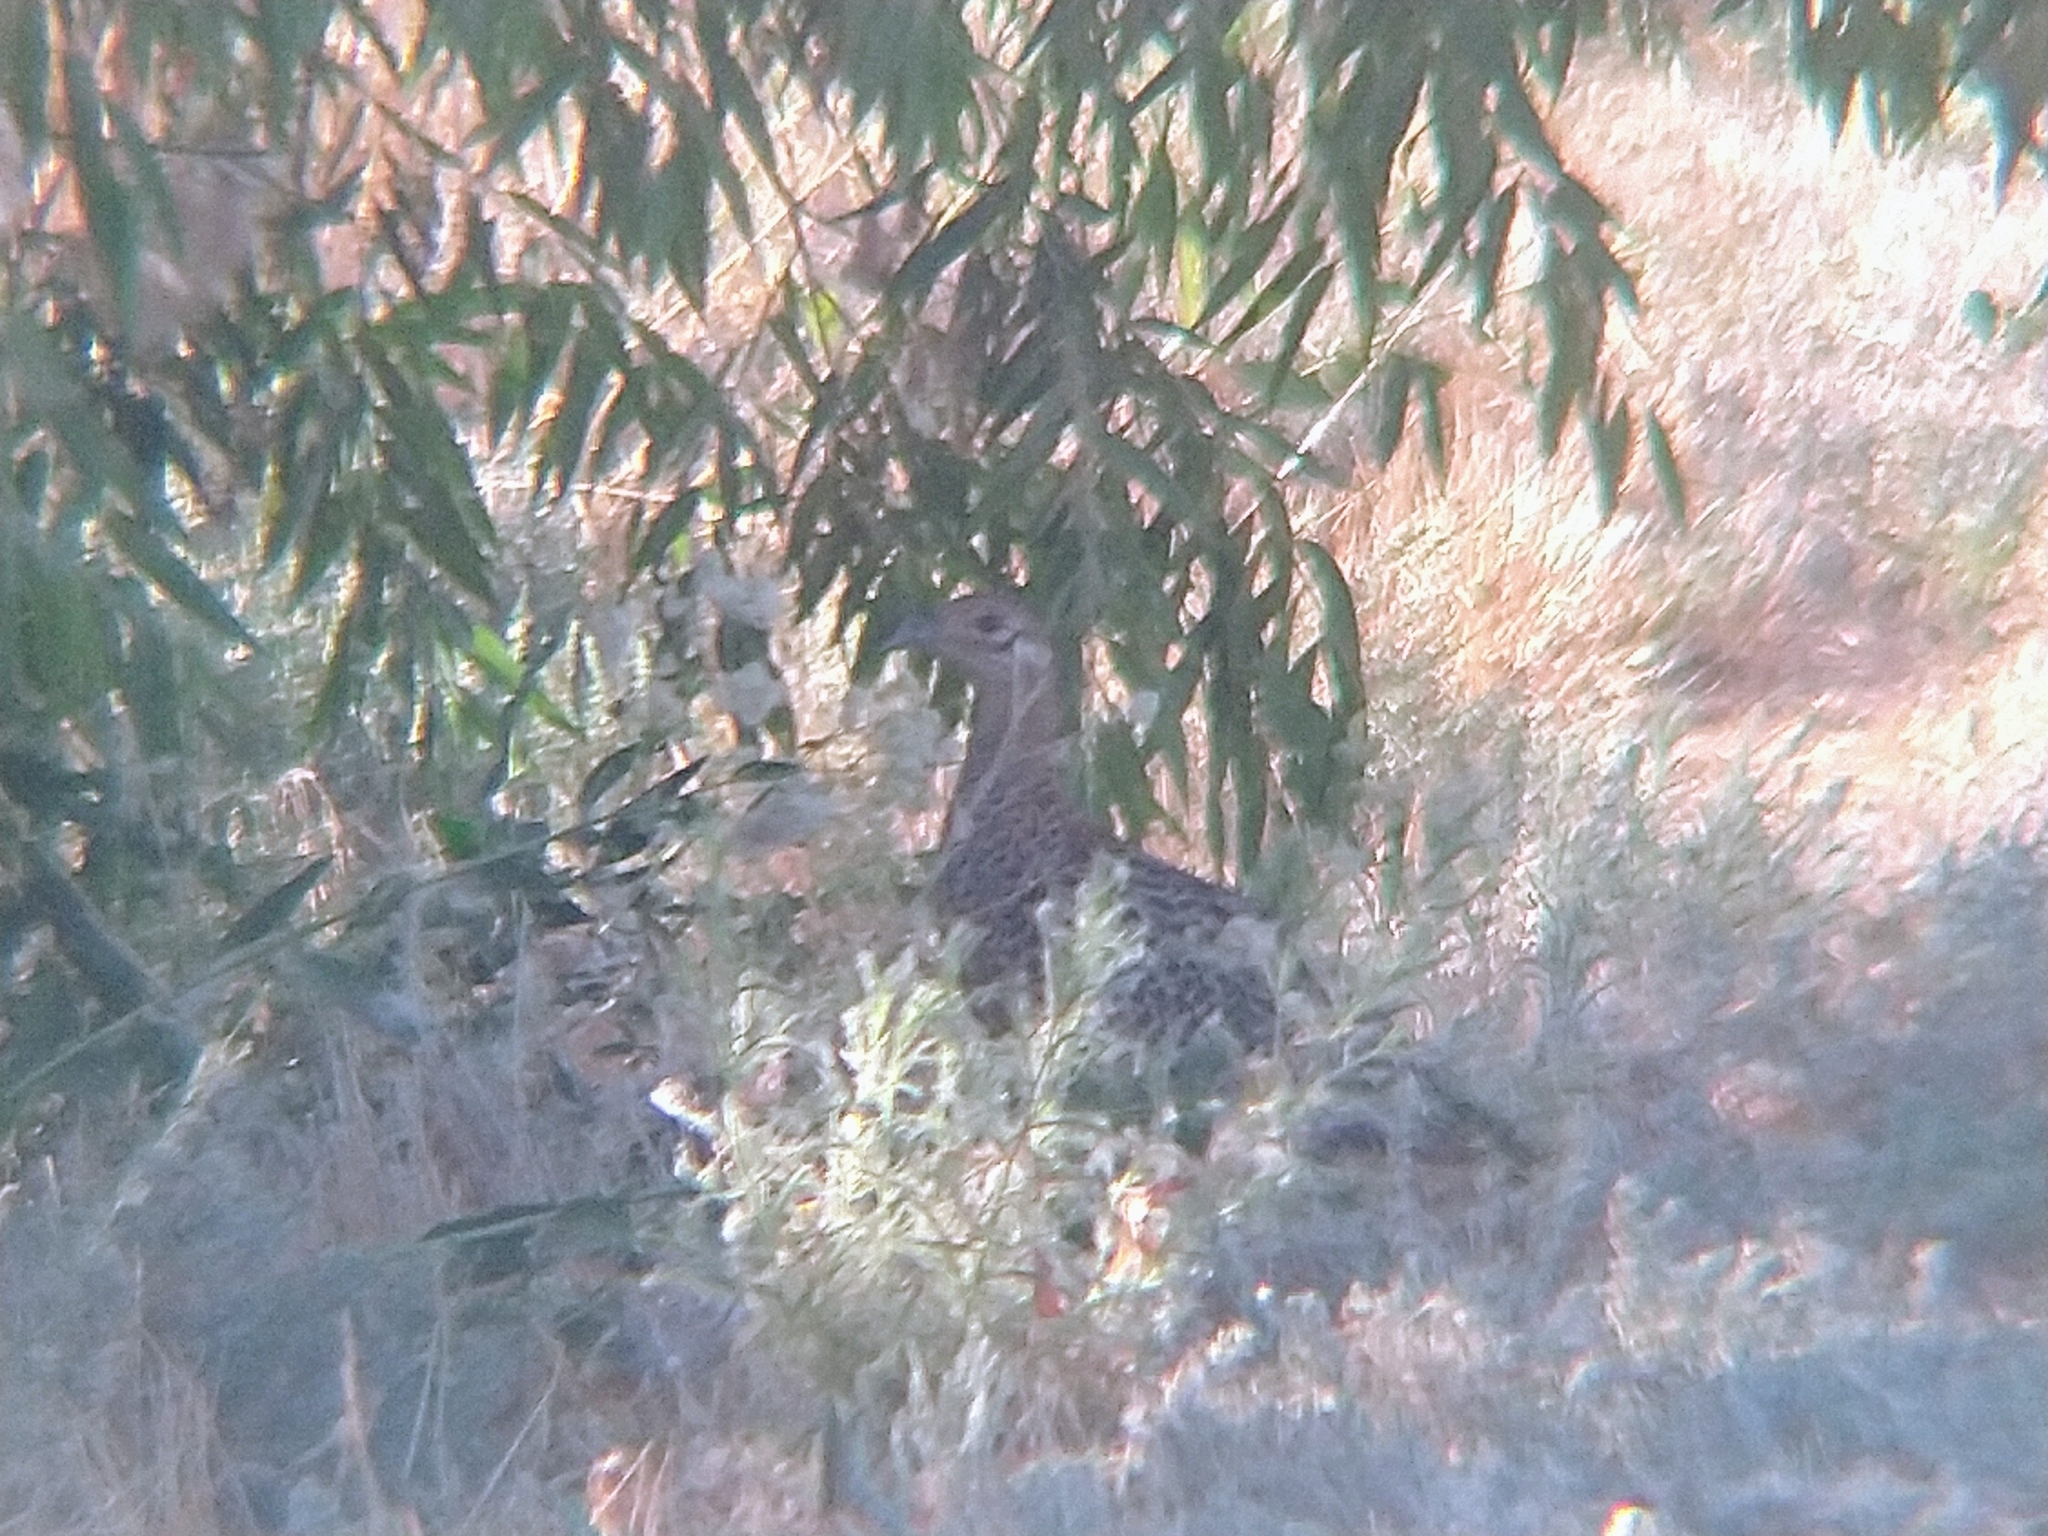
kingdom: Animalia
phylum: Chordata
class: Aves
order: Galliformes
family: Phasianidae
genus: Phasianus
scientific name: Phasianus colchicus
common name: Common pheasant
